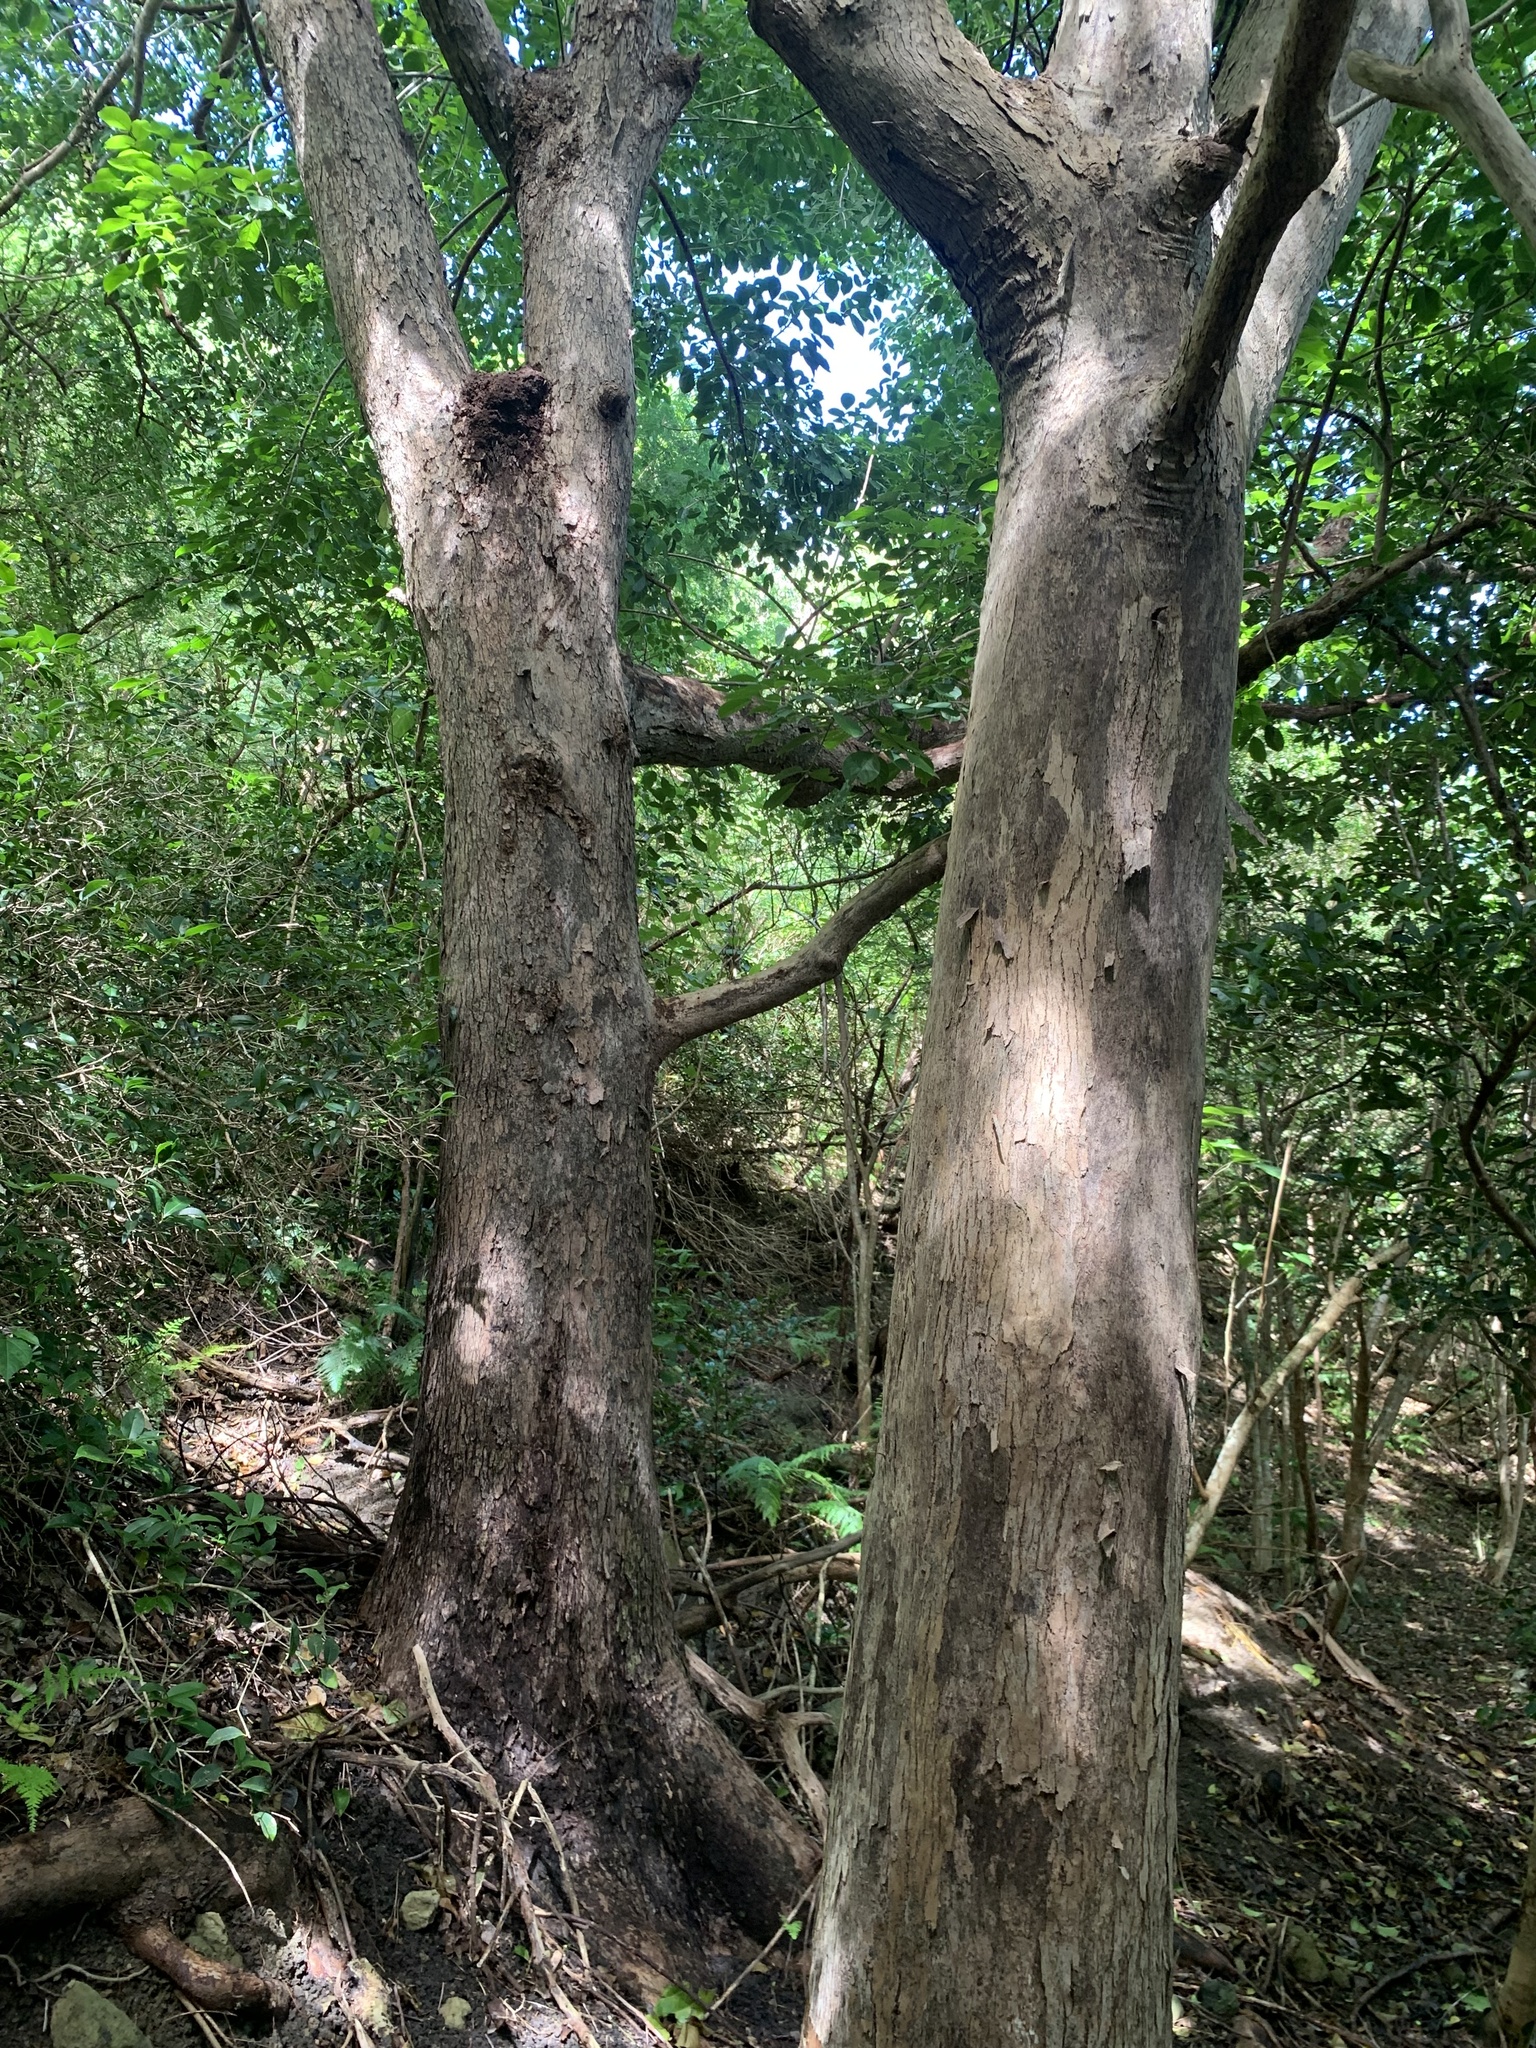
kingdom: Plantae
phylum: Tracheophyta
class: Magnoliopsida
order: Malpighiales
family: Phyllanthaceae
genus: Bischofia
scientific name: Bischofia javanica
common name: Javanese bishopwood
